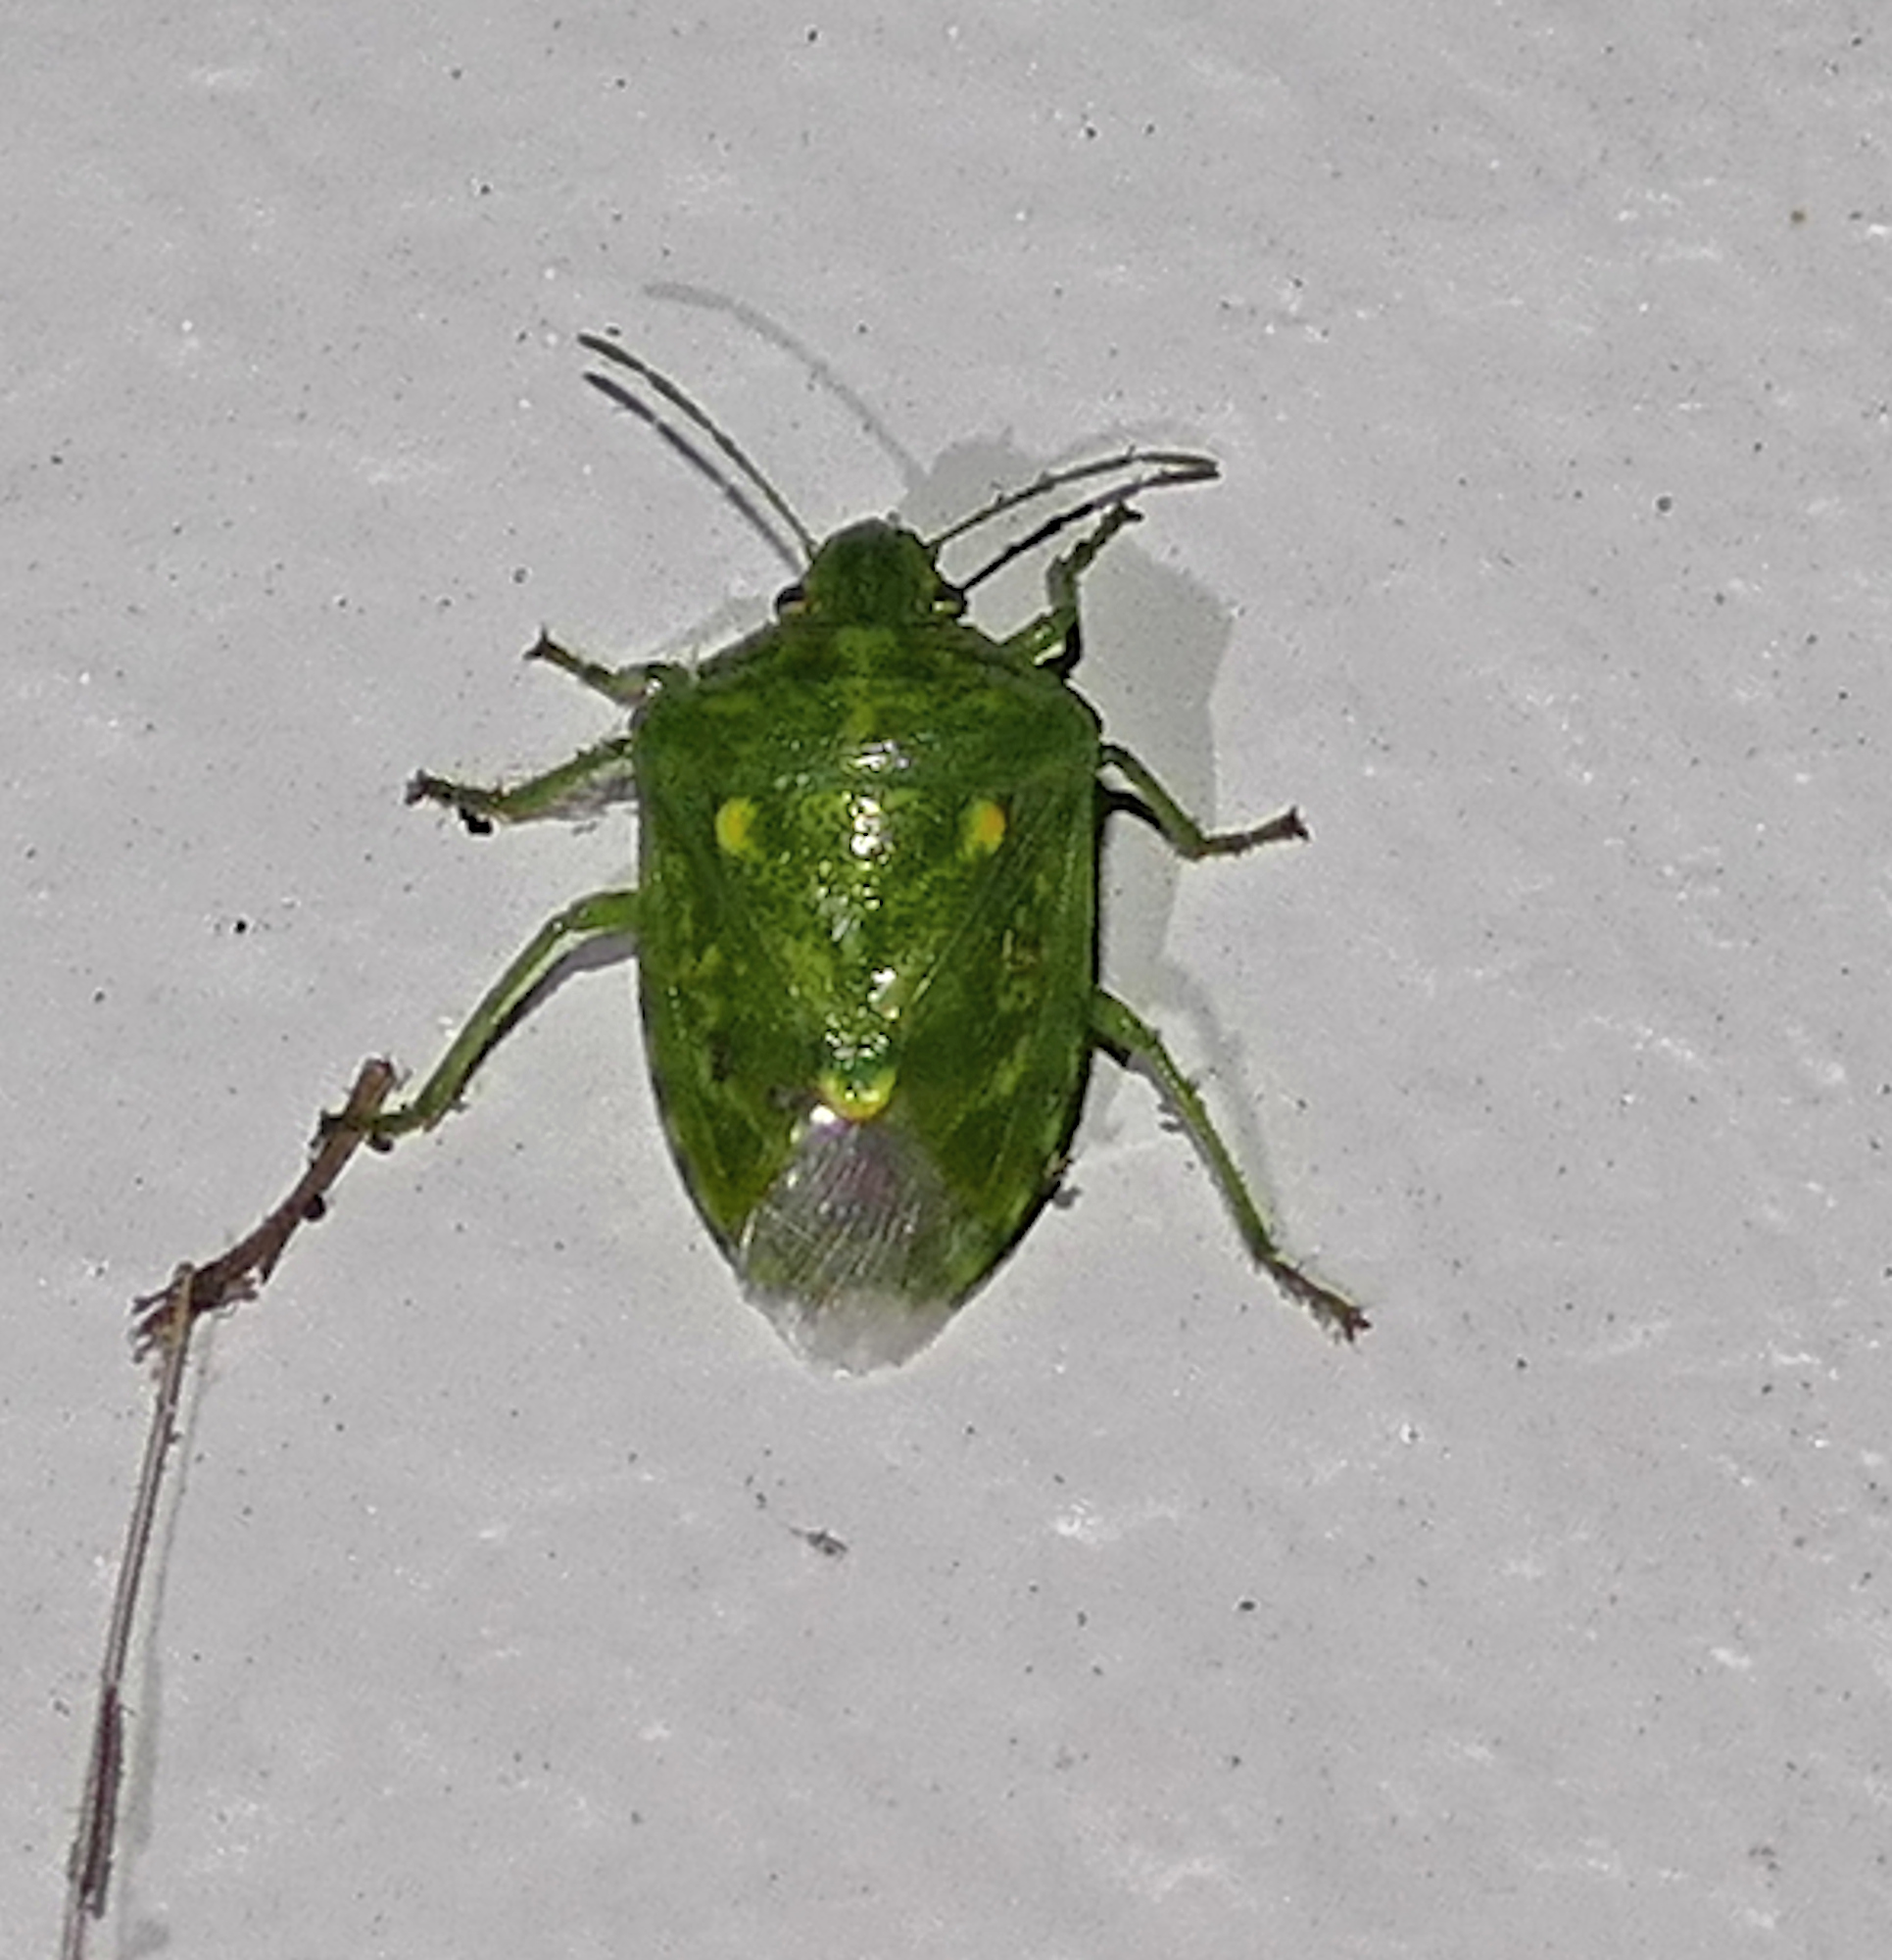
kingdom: Animalia
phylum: Arthropoda
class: Insecta
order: Hemiptera
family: Pentatomidae
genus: Banasa
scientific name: Banasa euchlora
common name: Cedar berry bug
